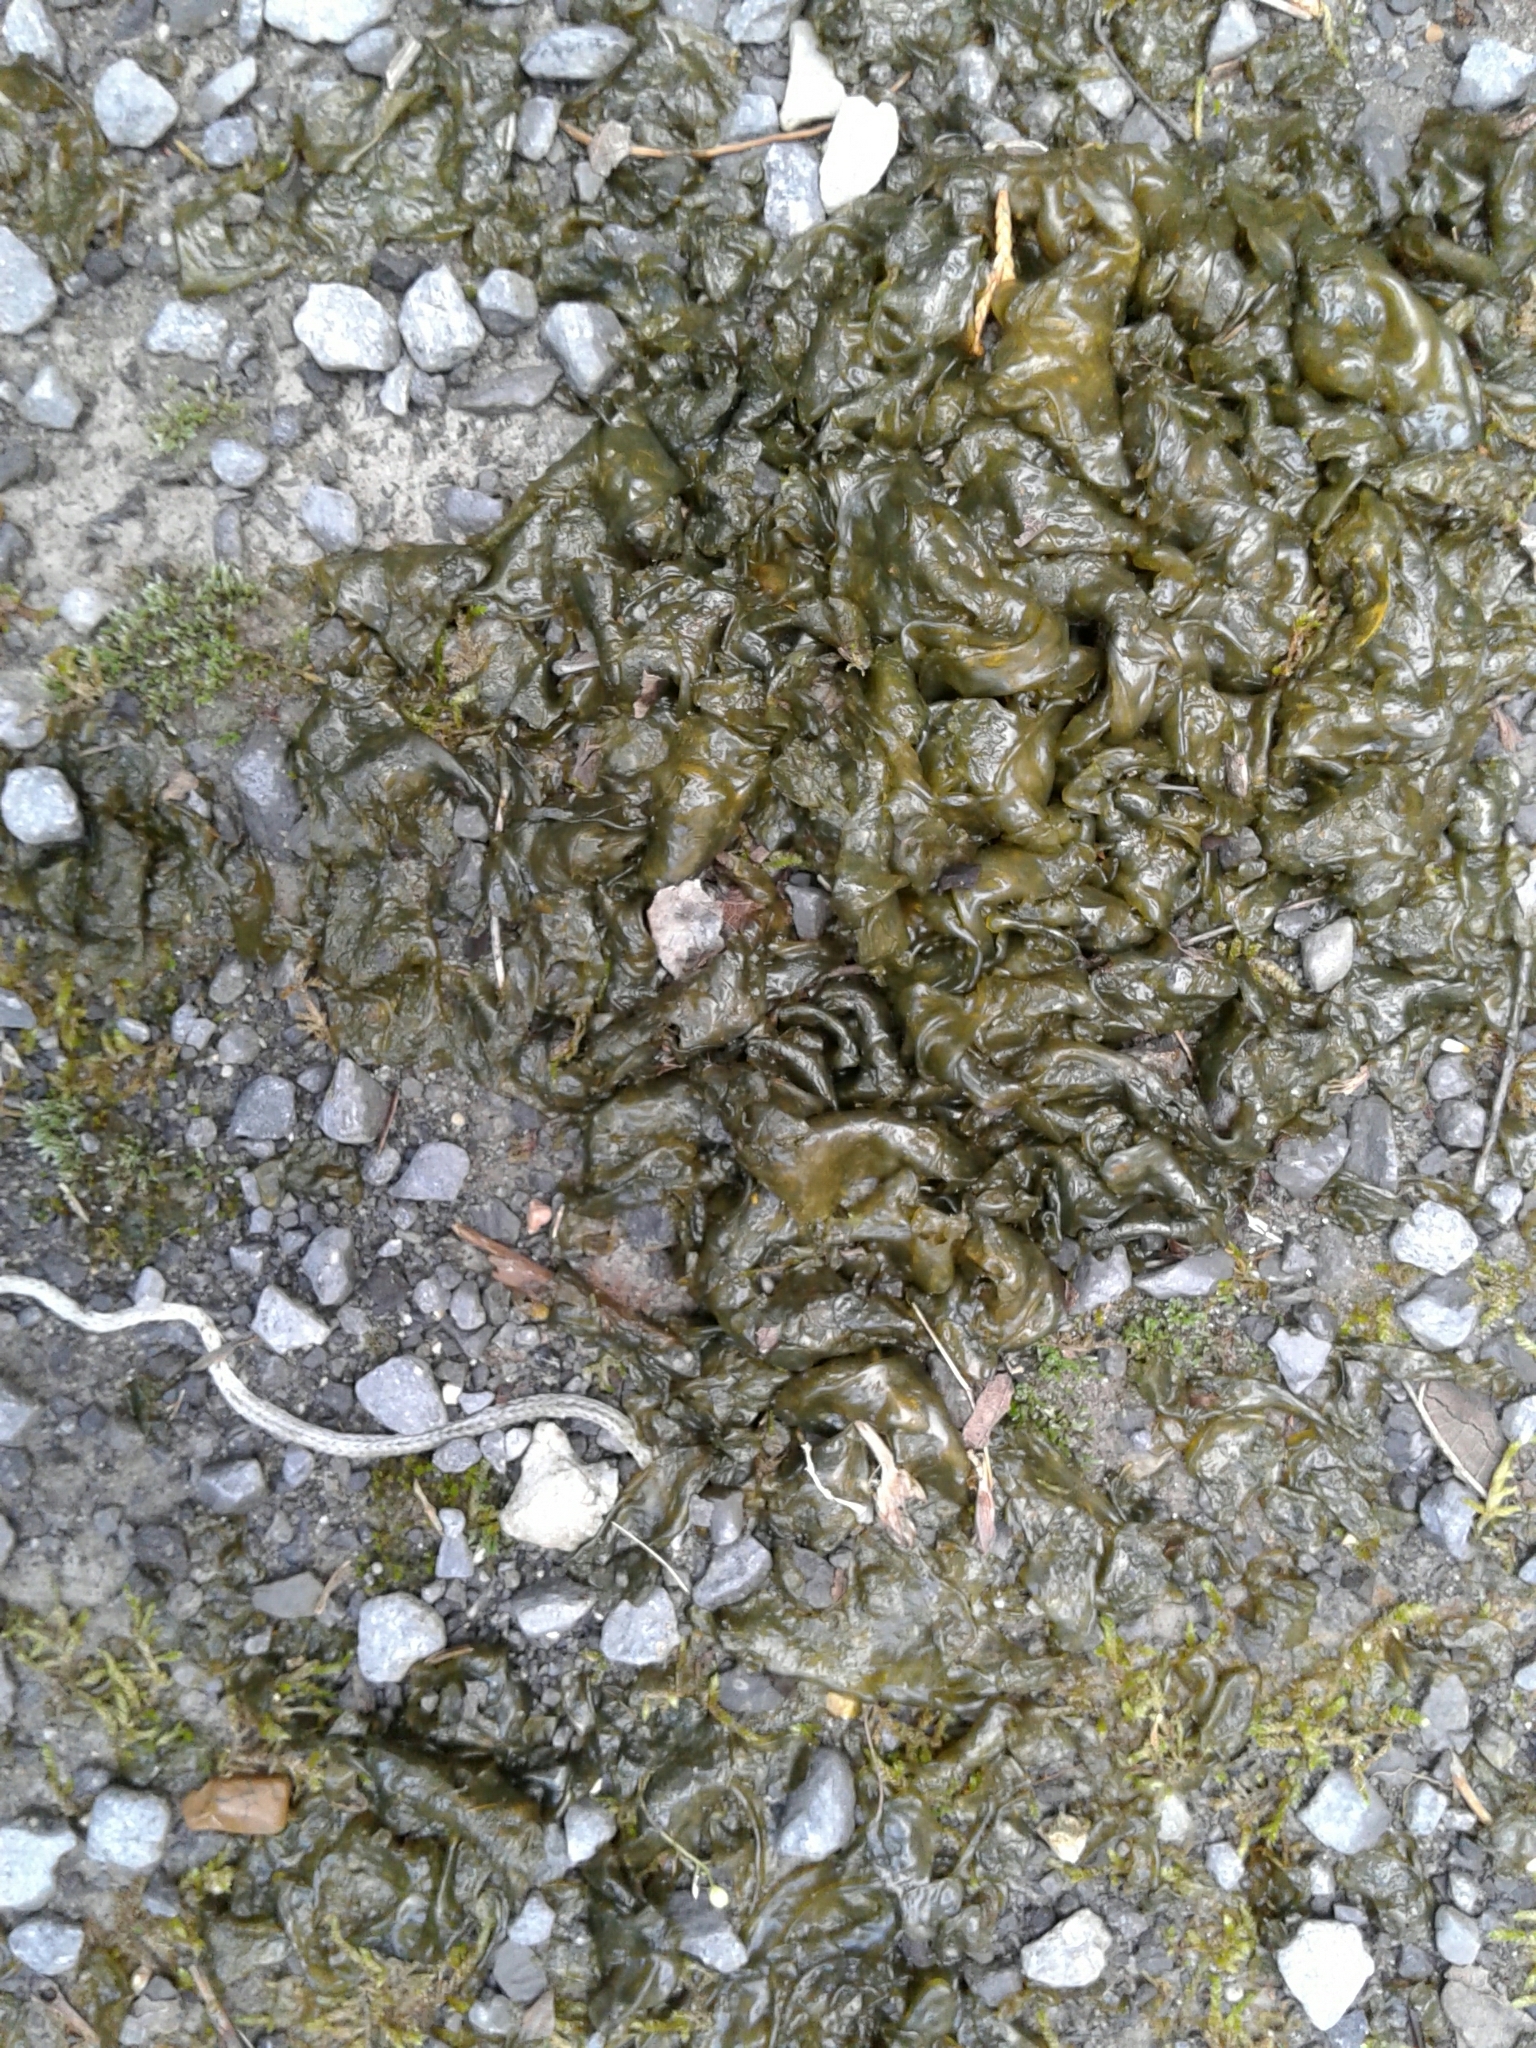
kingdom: Bacteria
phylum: Cyanobacteria
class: Cyanobacteriia
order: Cyanobacteriales
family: Nostocaceae
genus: Nostoc
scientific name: Nostoc commune
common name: Star jelly
